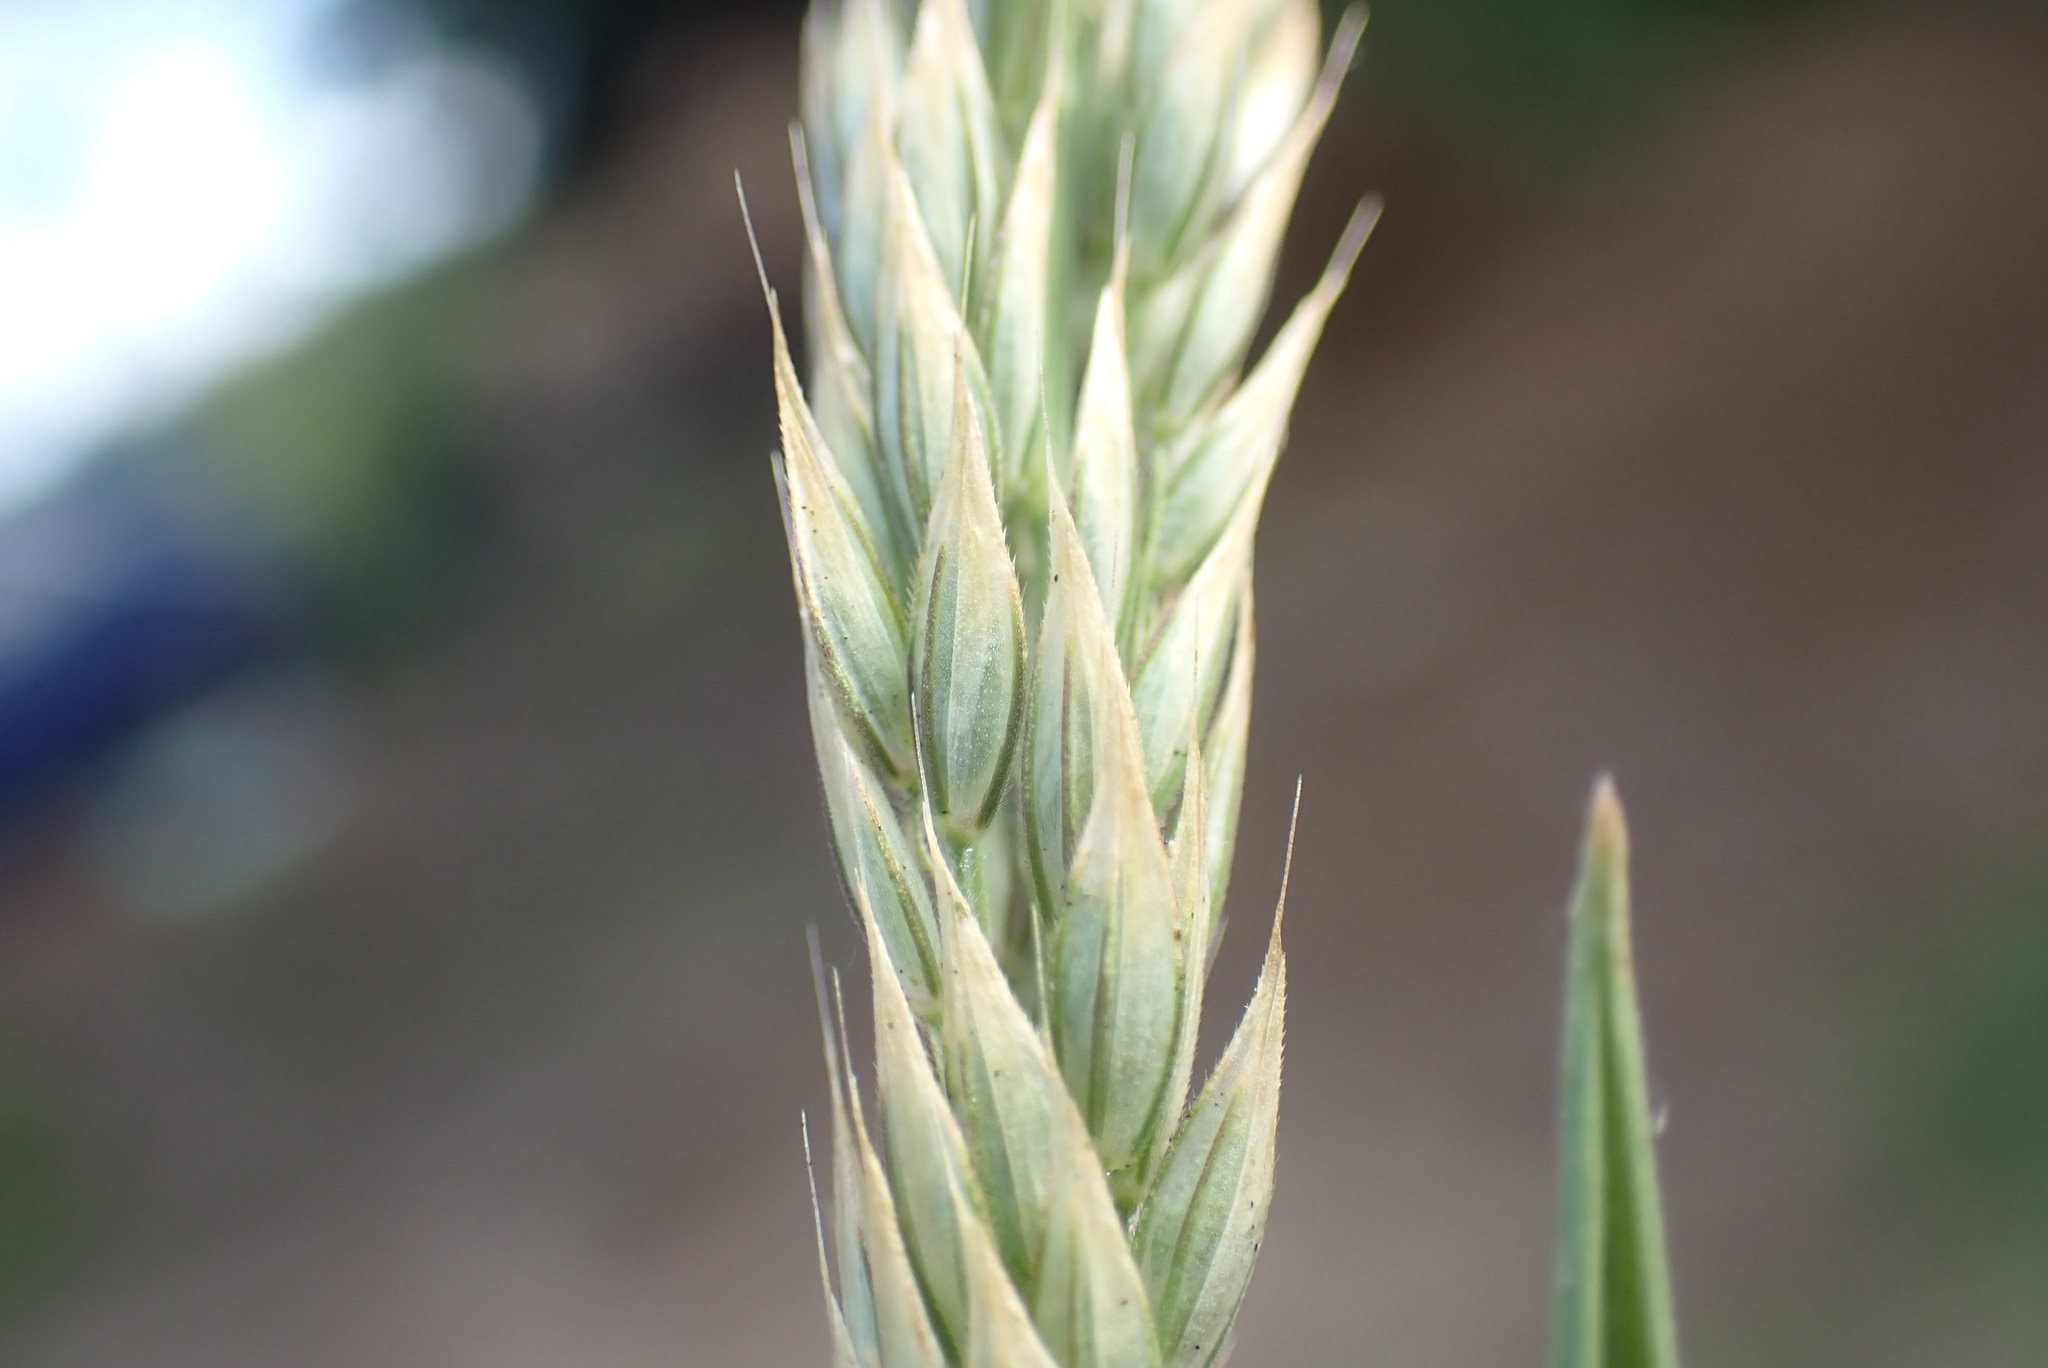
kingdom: Plantae
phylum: Tracheophyta
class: Liliopsida
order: Poales
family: Poaceae
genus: Holcus
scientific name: Holcus mollis
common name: Creeping velvetgrass
